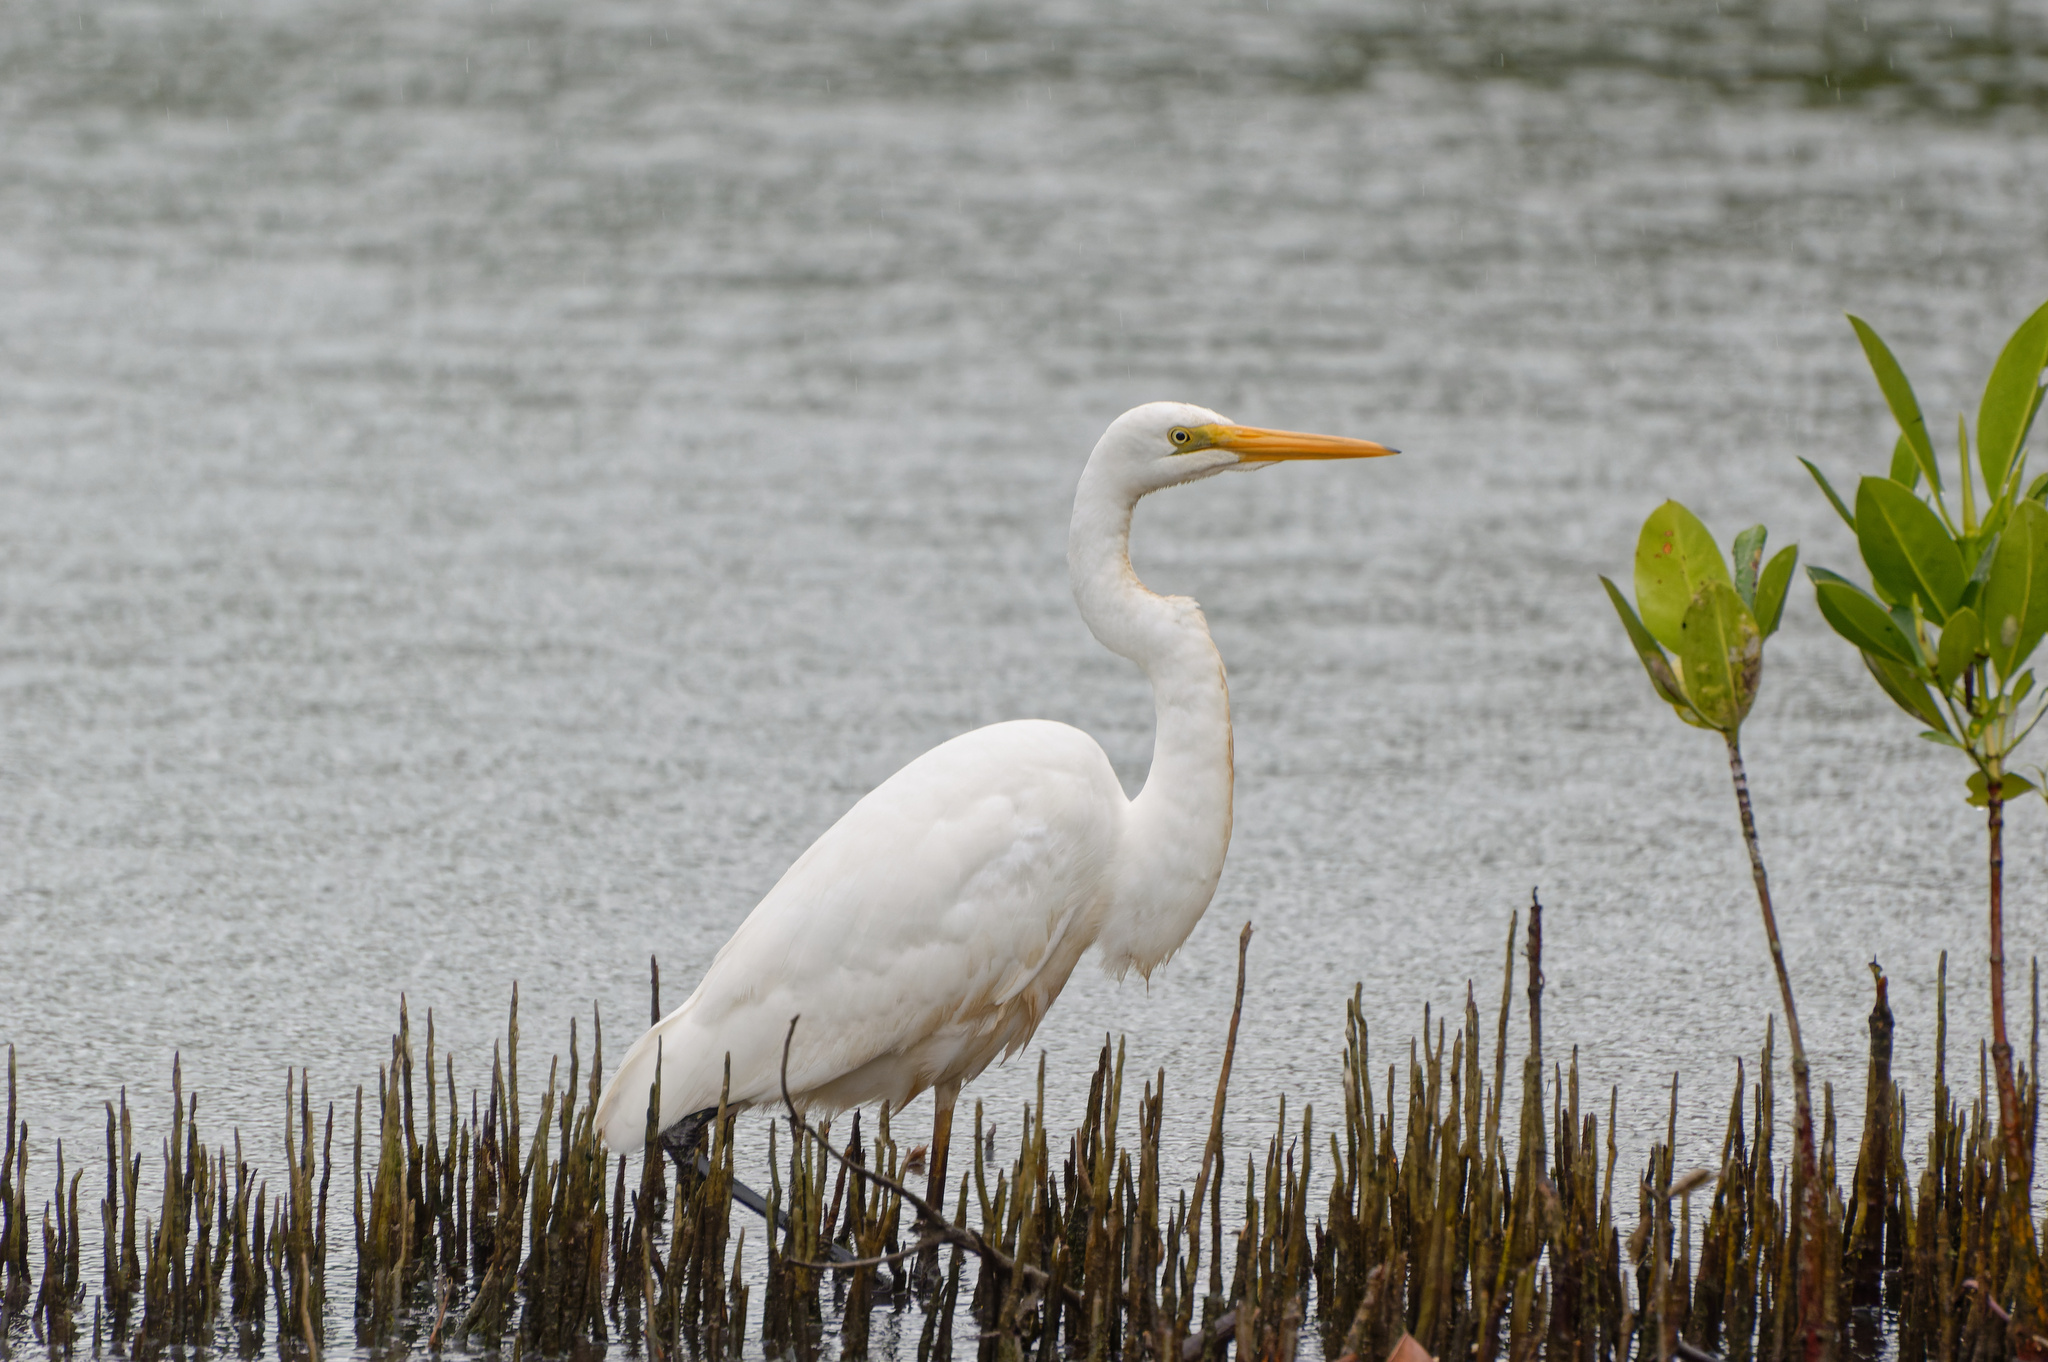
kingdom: Animalia
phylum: Chordata
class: Aves
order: Pelecaniformes
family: Ardeidae
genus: Ardea
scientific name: Ardea alba
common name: Great egret
